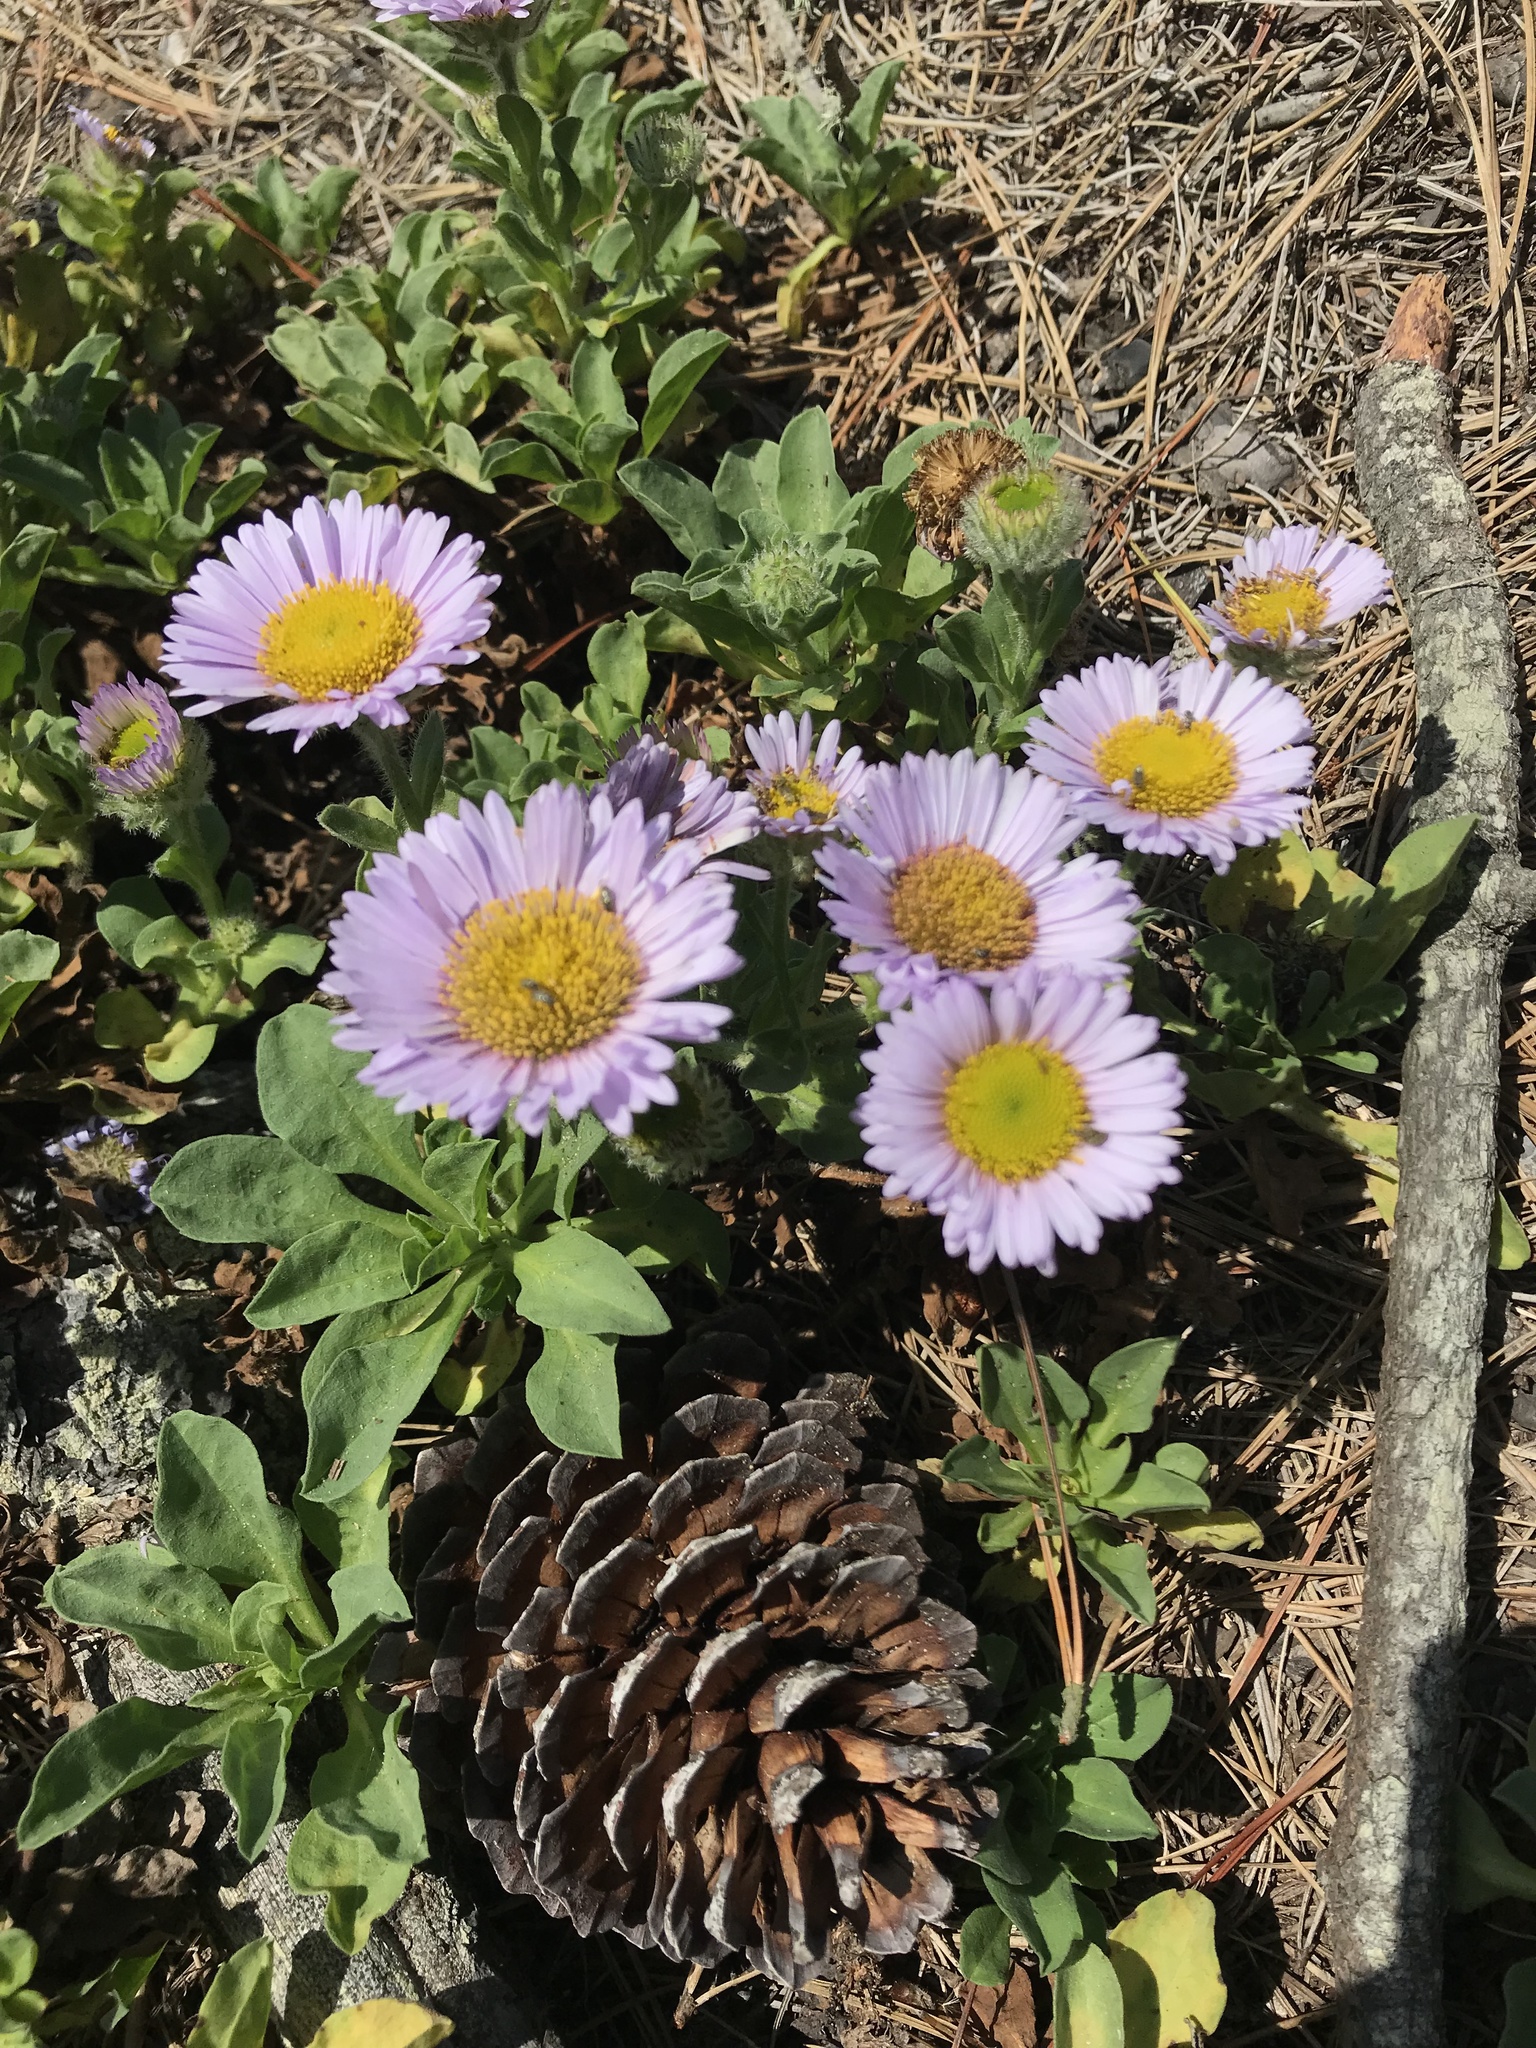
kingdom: Plantae
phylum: Tracheophyta
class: Magnoliopsida
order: Asterales
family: Asteraceae
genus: Erigeron
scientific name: Erigeron glaucus
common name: Seaside daisy
